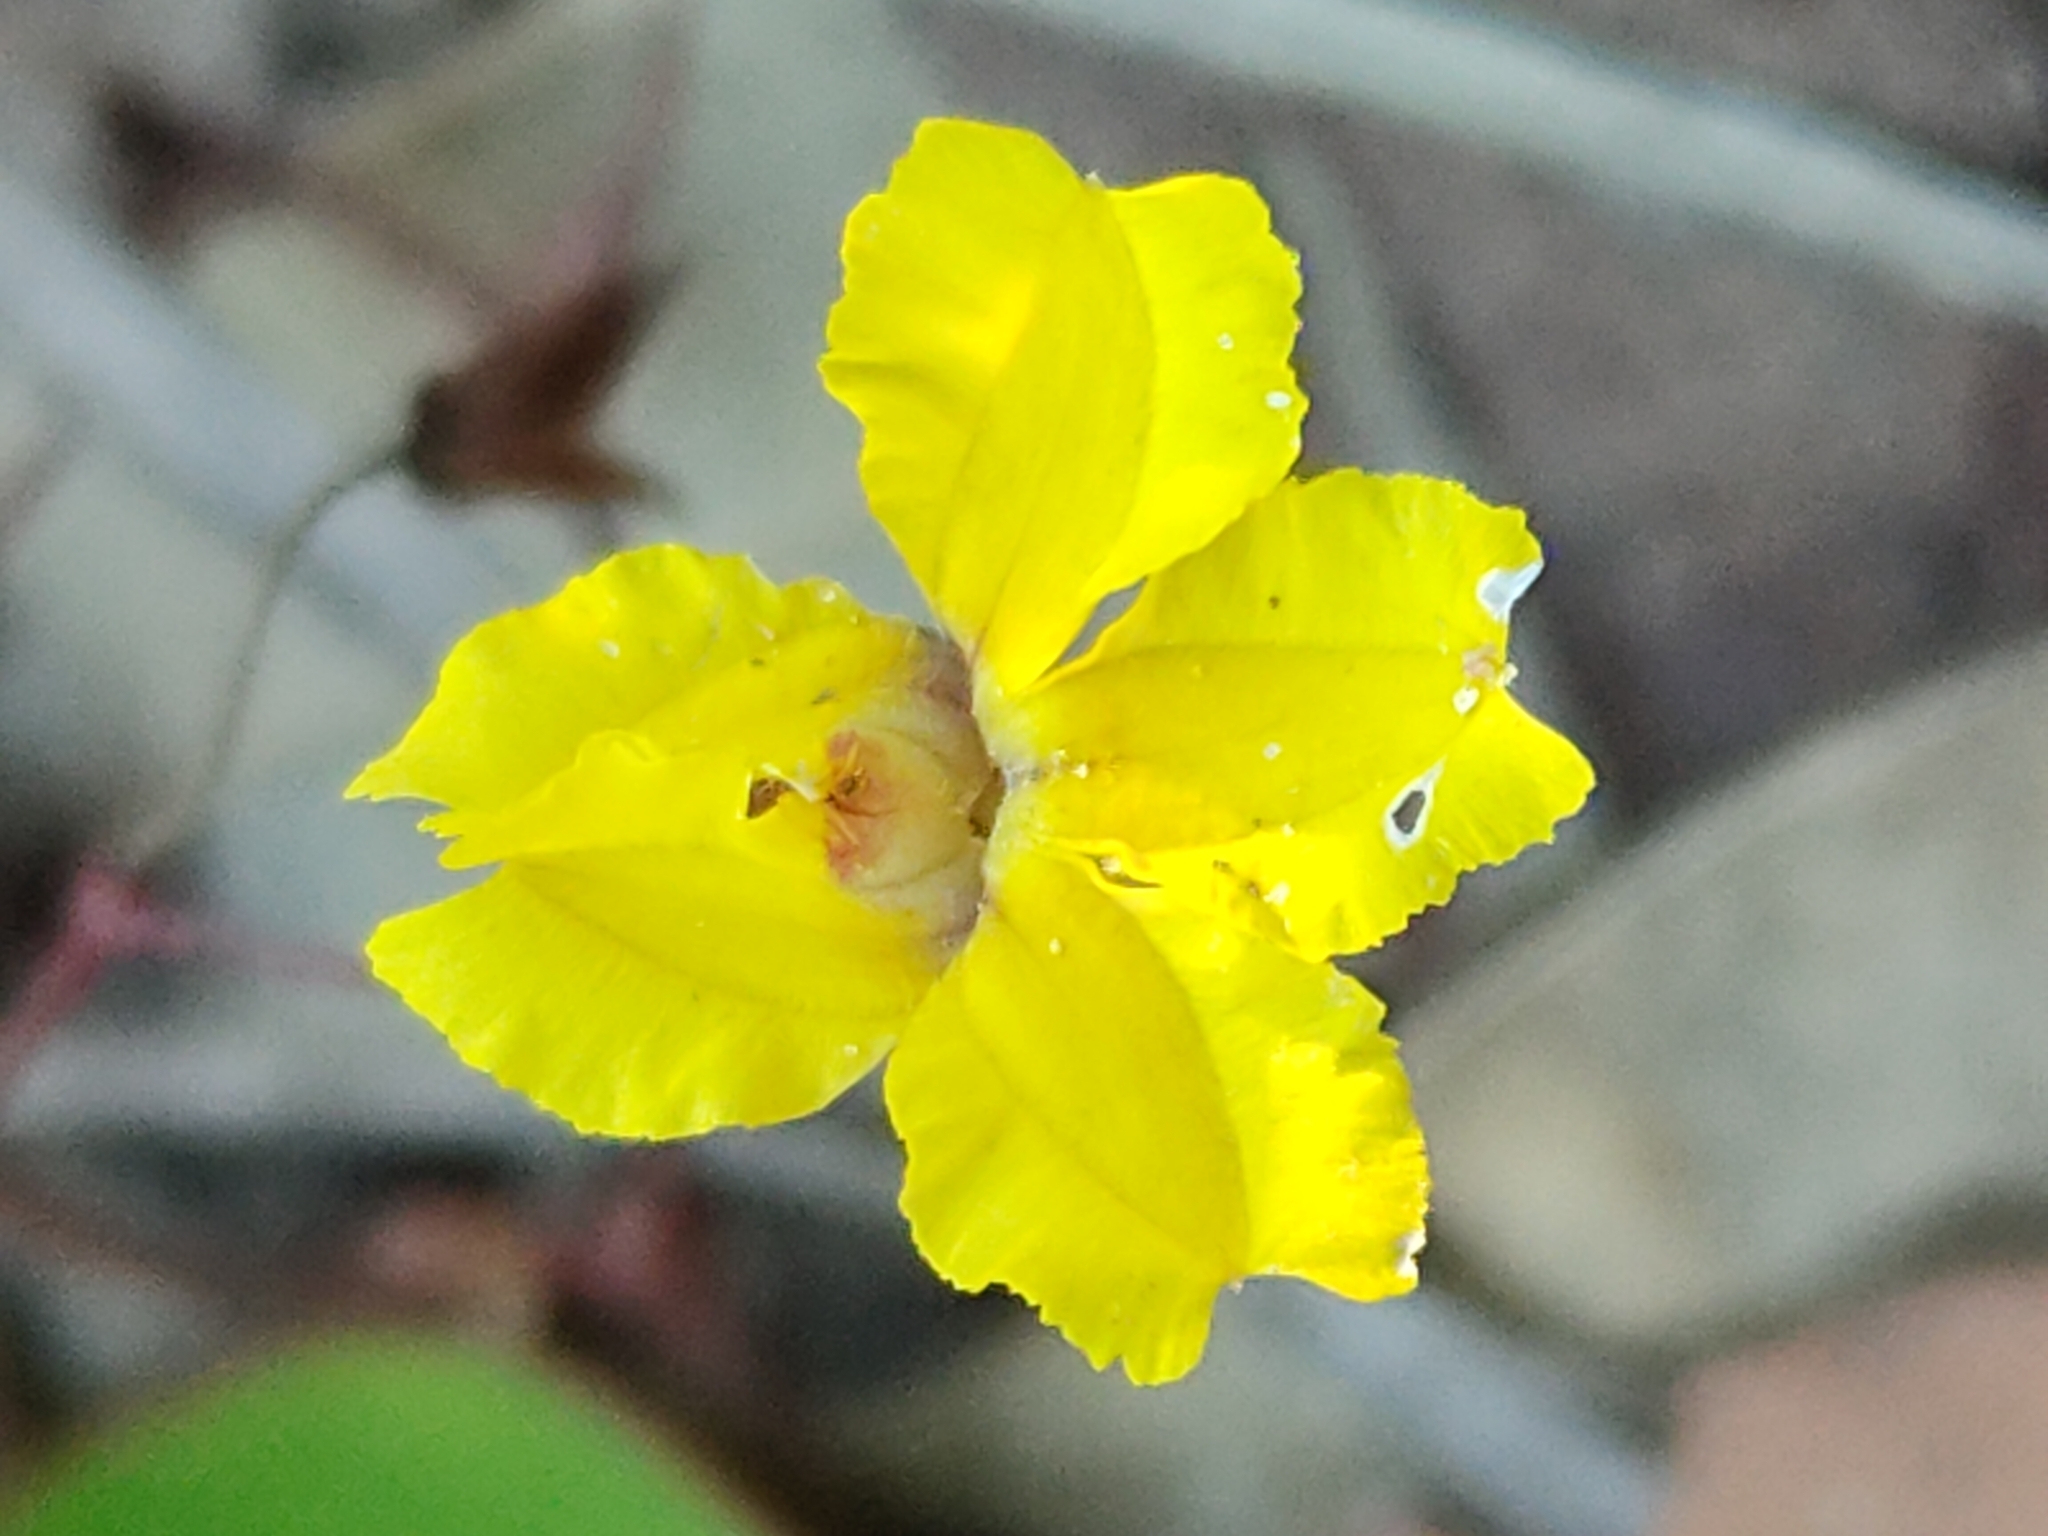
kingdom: Plantae
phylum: Tracheophyta
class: Magnoliopsida
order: Asterales
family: Goodeniaceae
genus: Goodenia
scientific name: Goodenia mystrophylla
